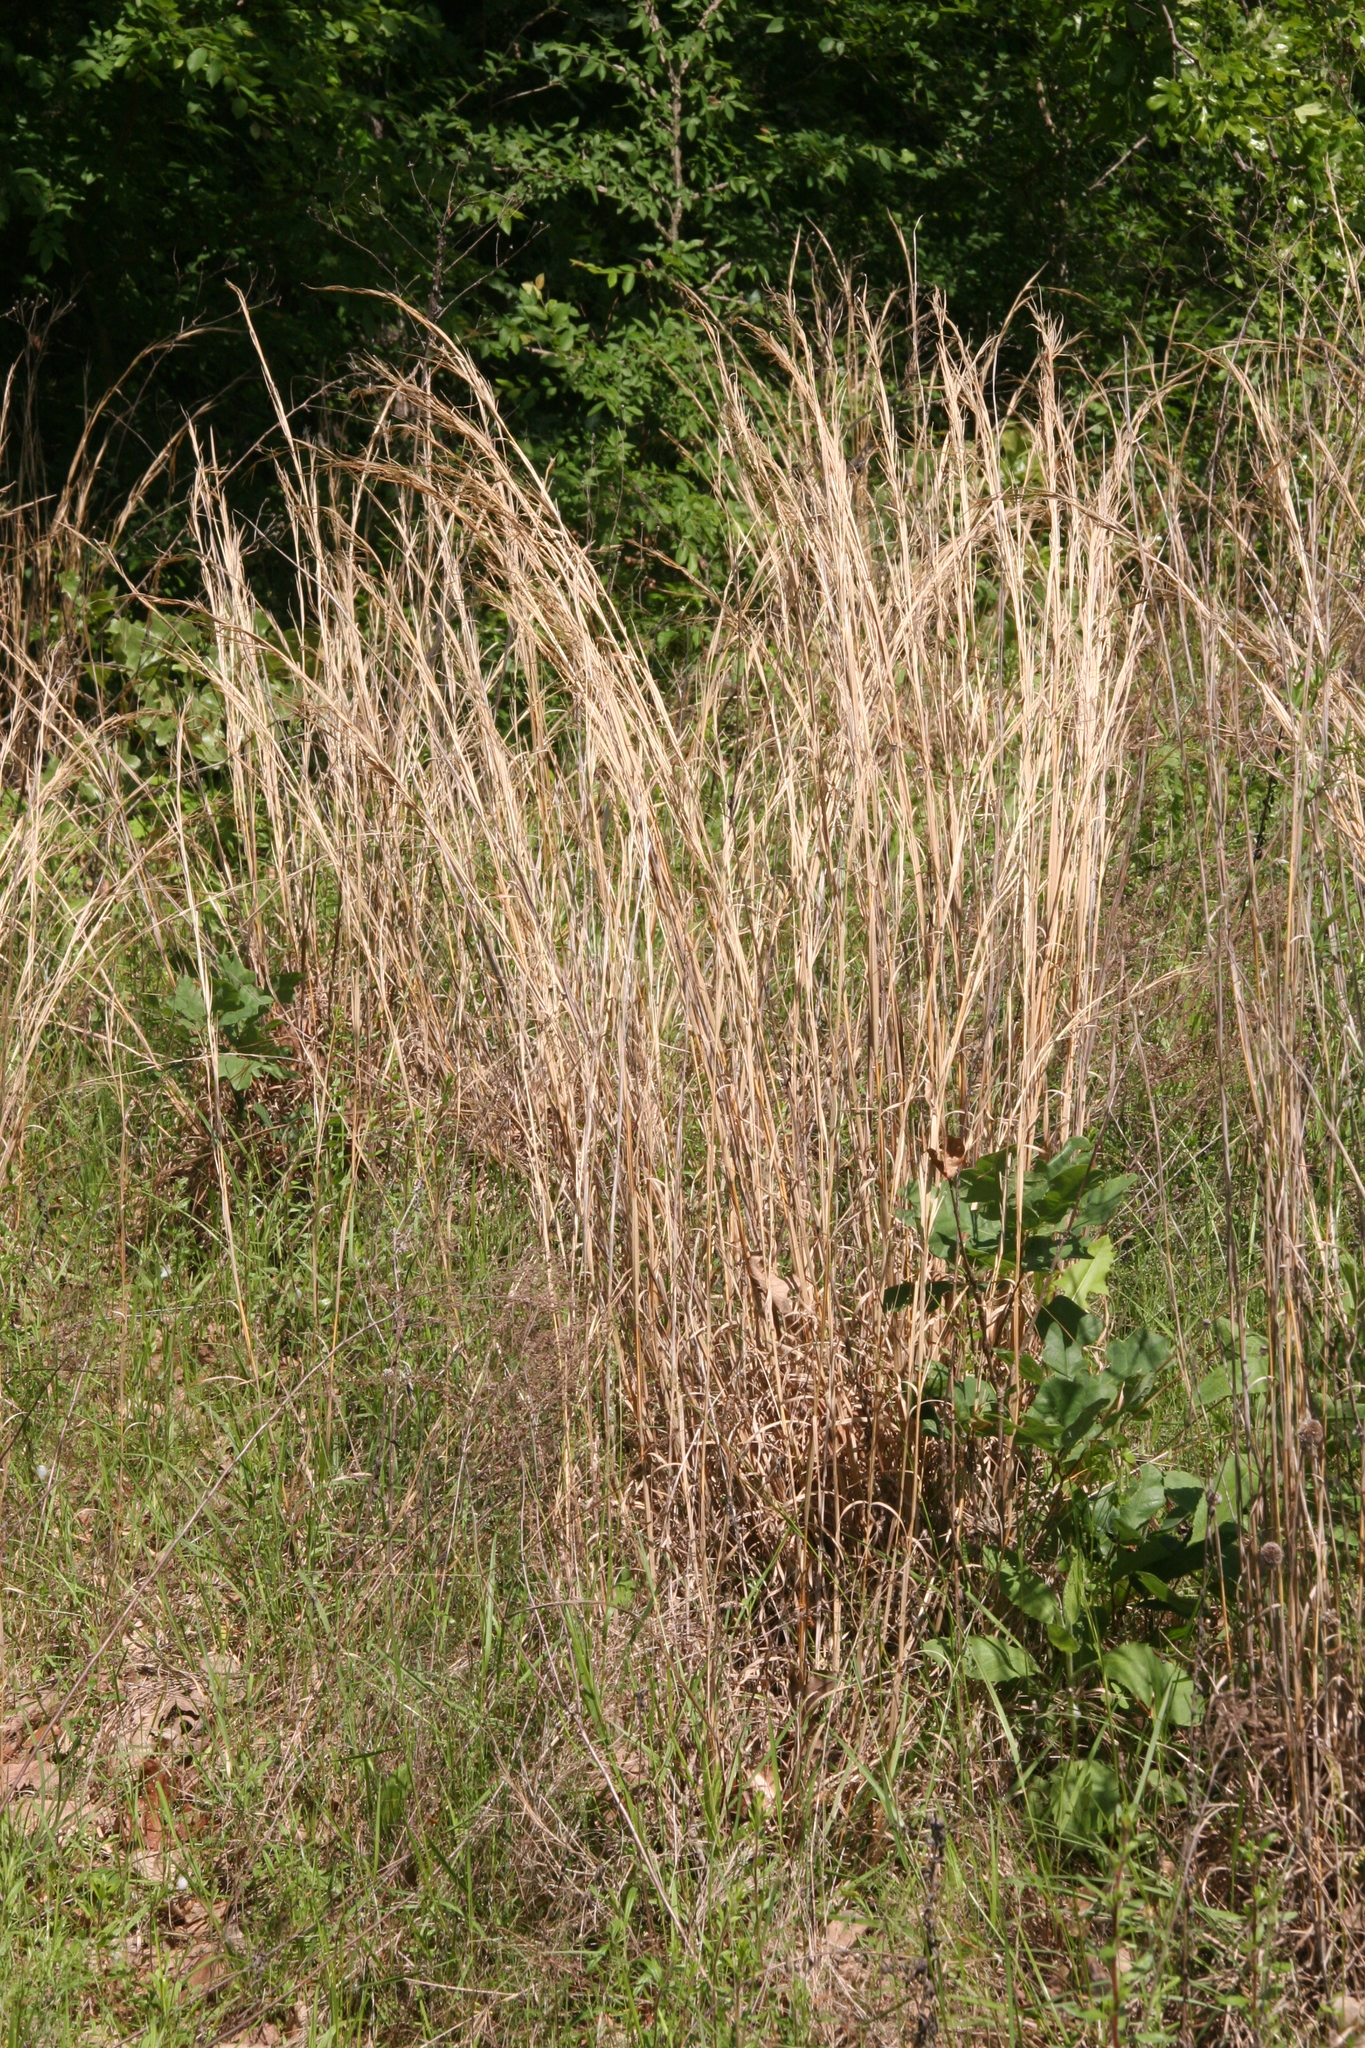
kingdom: Plantae
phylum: Tracheophyta
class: Liliopsida
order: Poales
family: Poaceae
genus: Schizachyrium
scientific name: Schizachyrium scoparium
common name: Little bluestem
